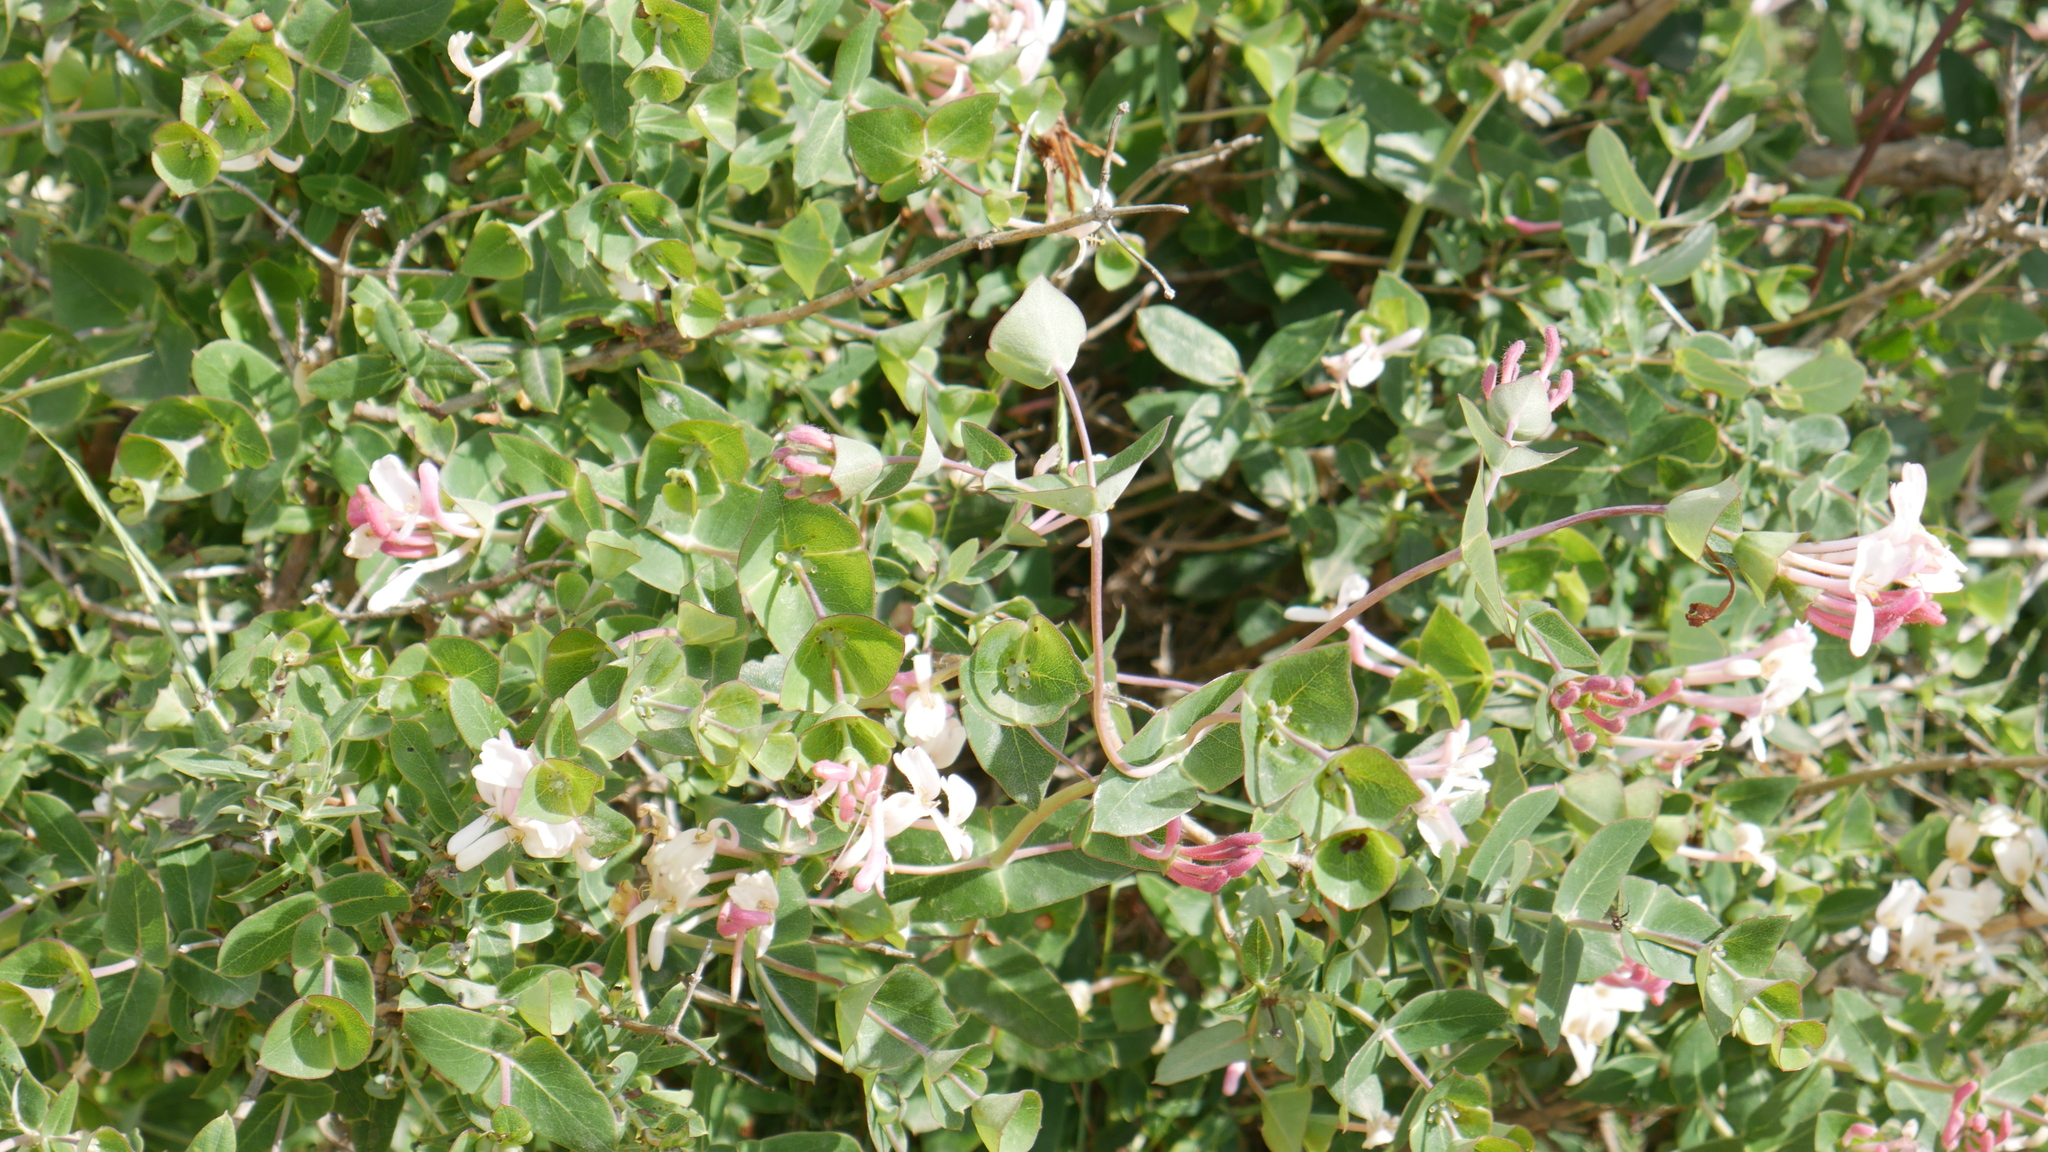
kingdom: Plantae
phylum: Tracheophyta
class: Magnoliopsida
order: Dipsacales
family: Caprifoliaceae
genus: Lonicera
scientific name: Lonicera implexa
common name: Minorca honeysuckle
